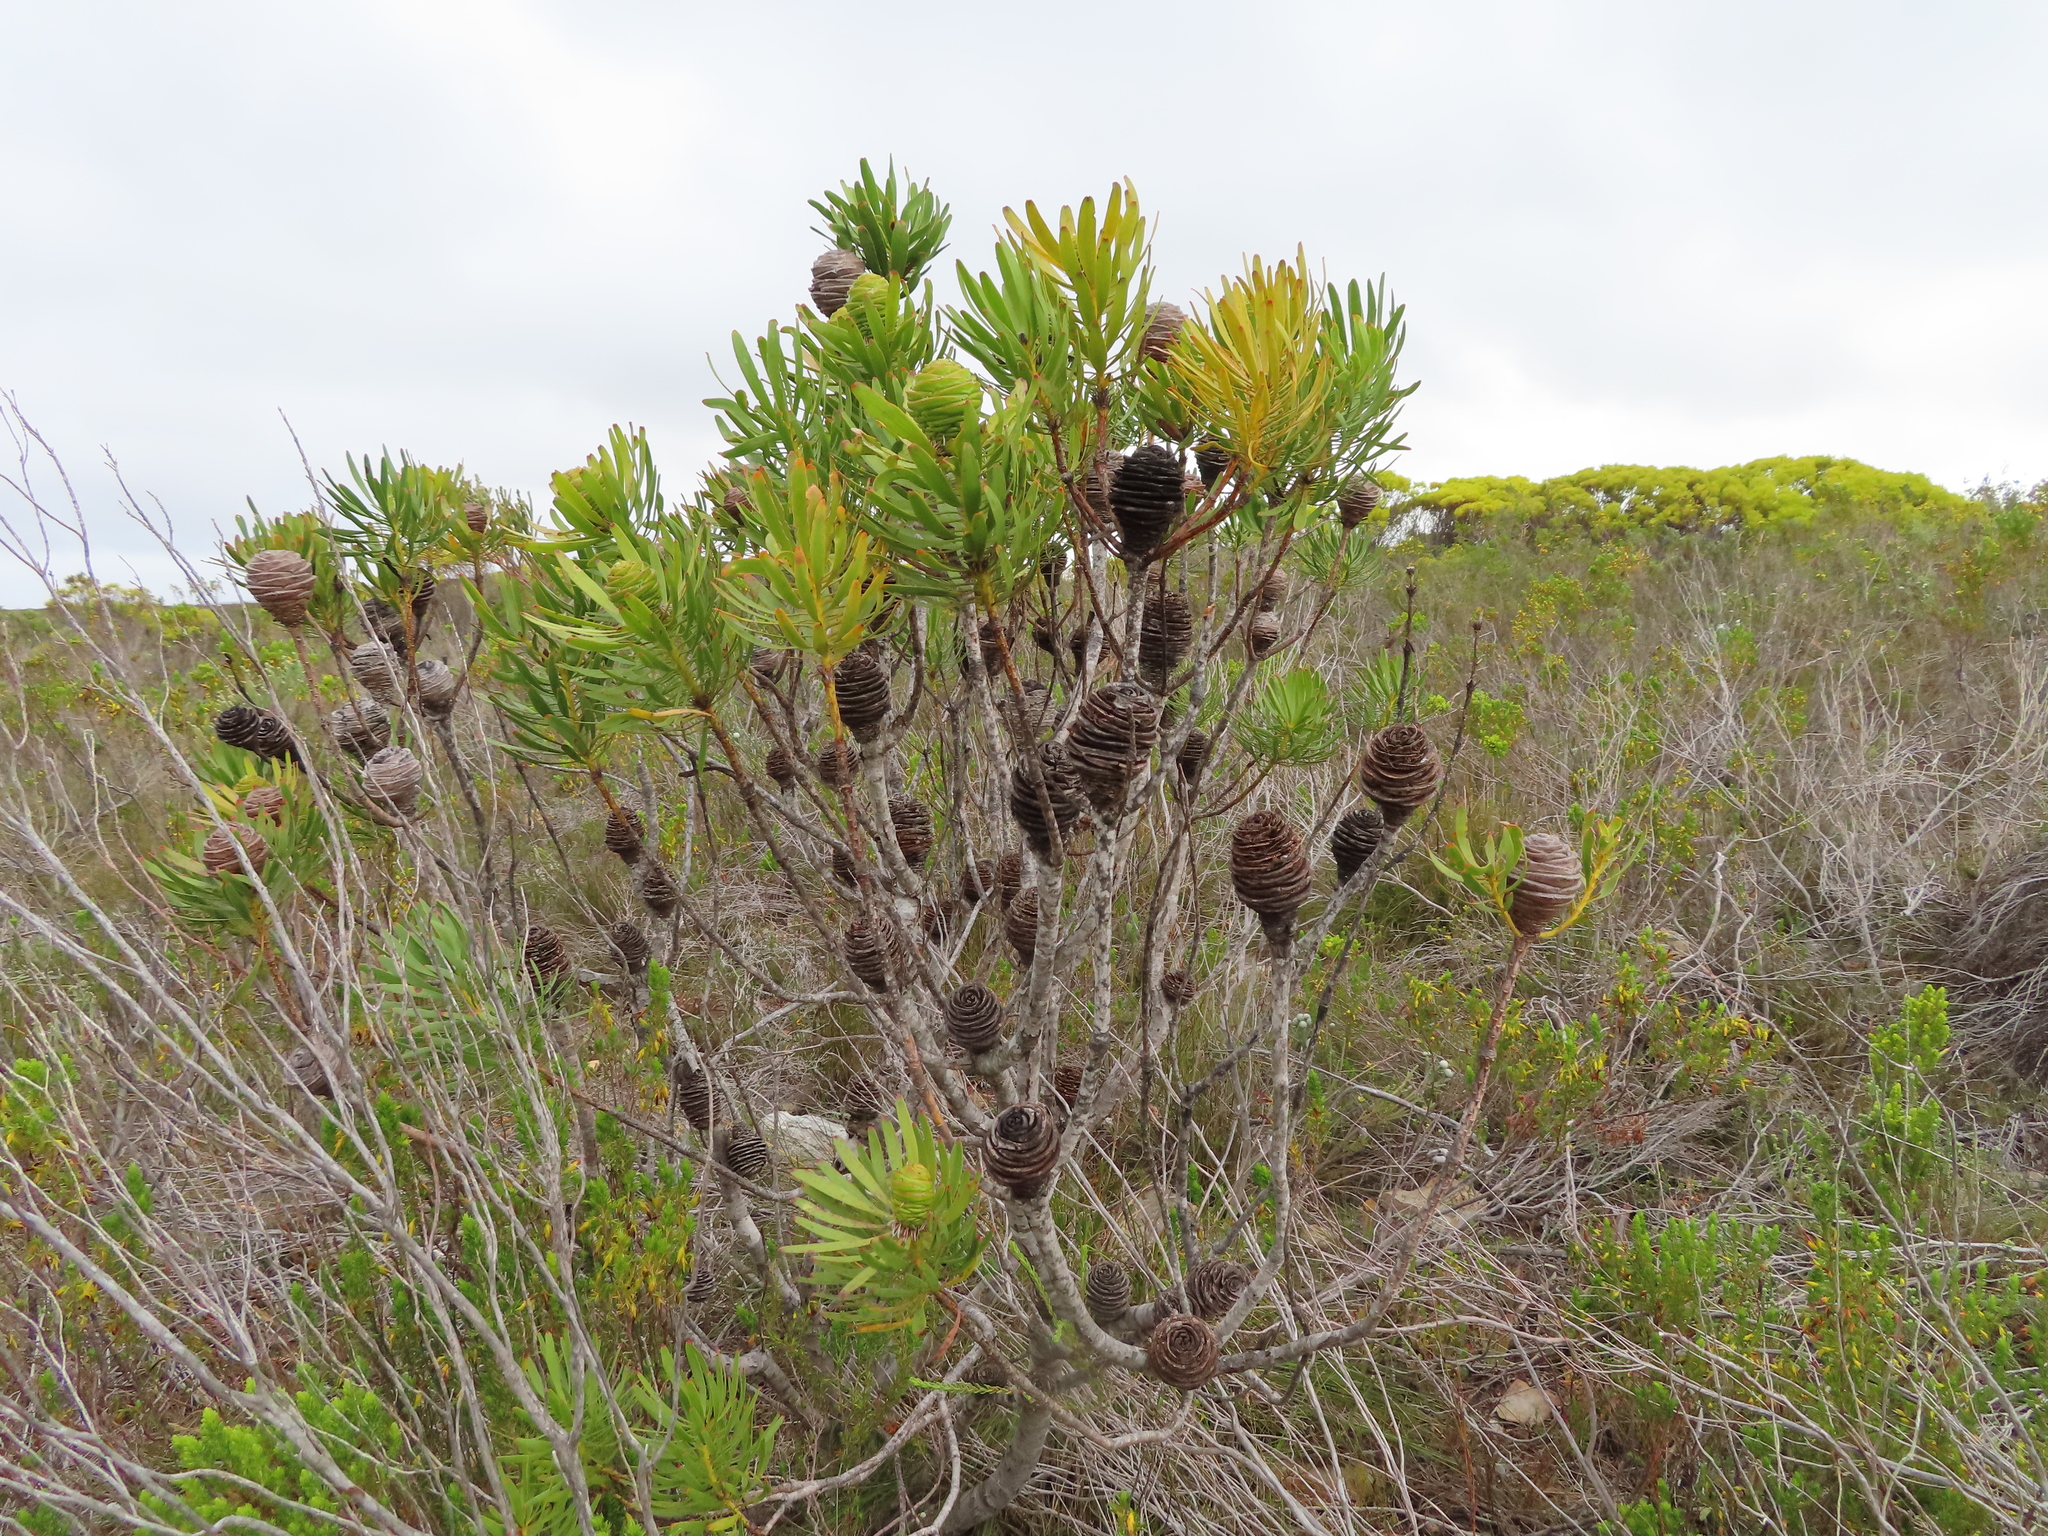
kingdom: Plantae
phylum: Tracheophyta
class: Magnoliopsida
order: Proteales
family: Proteaceae
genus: Leucadendron
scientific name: Leucadendron platyspermum
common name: Plate-seed conebush
